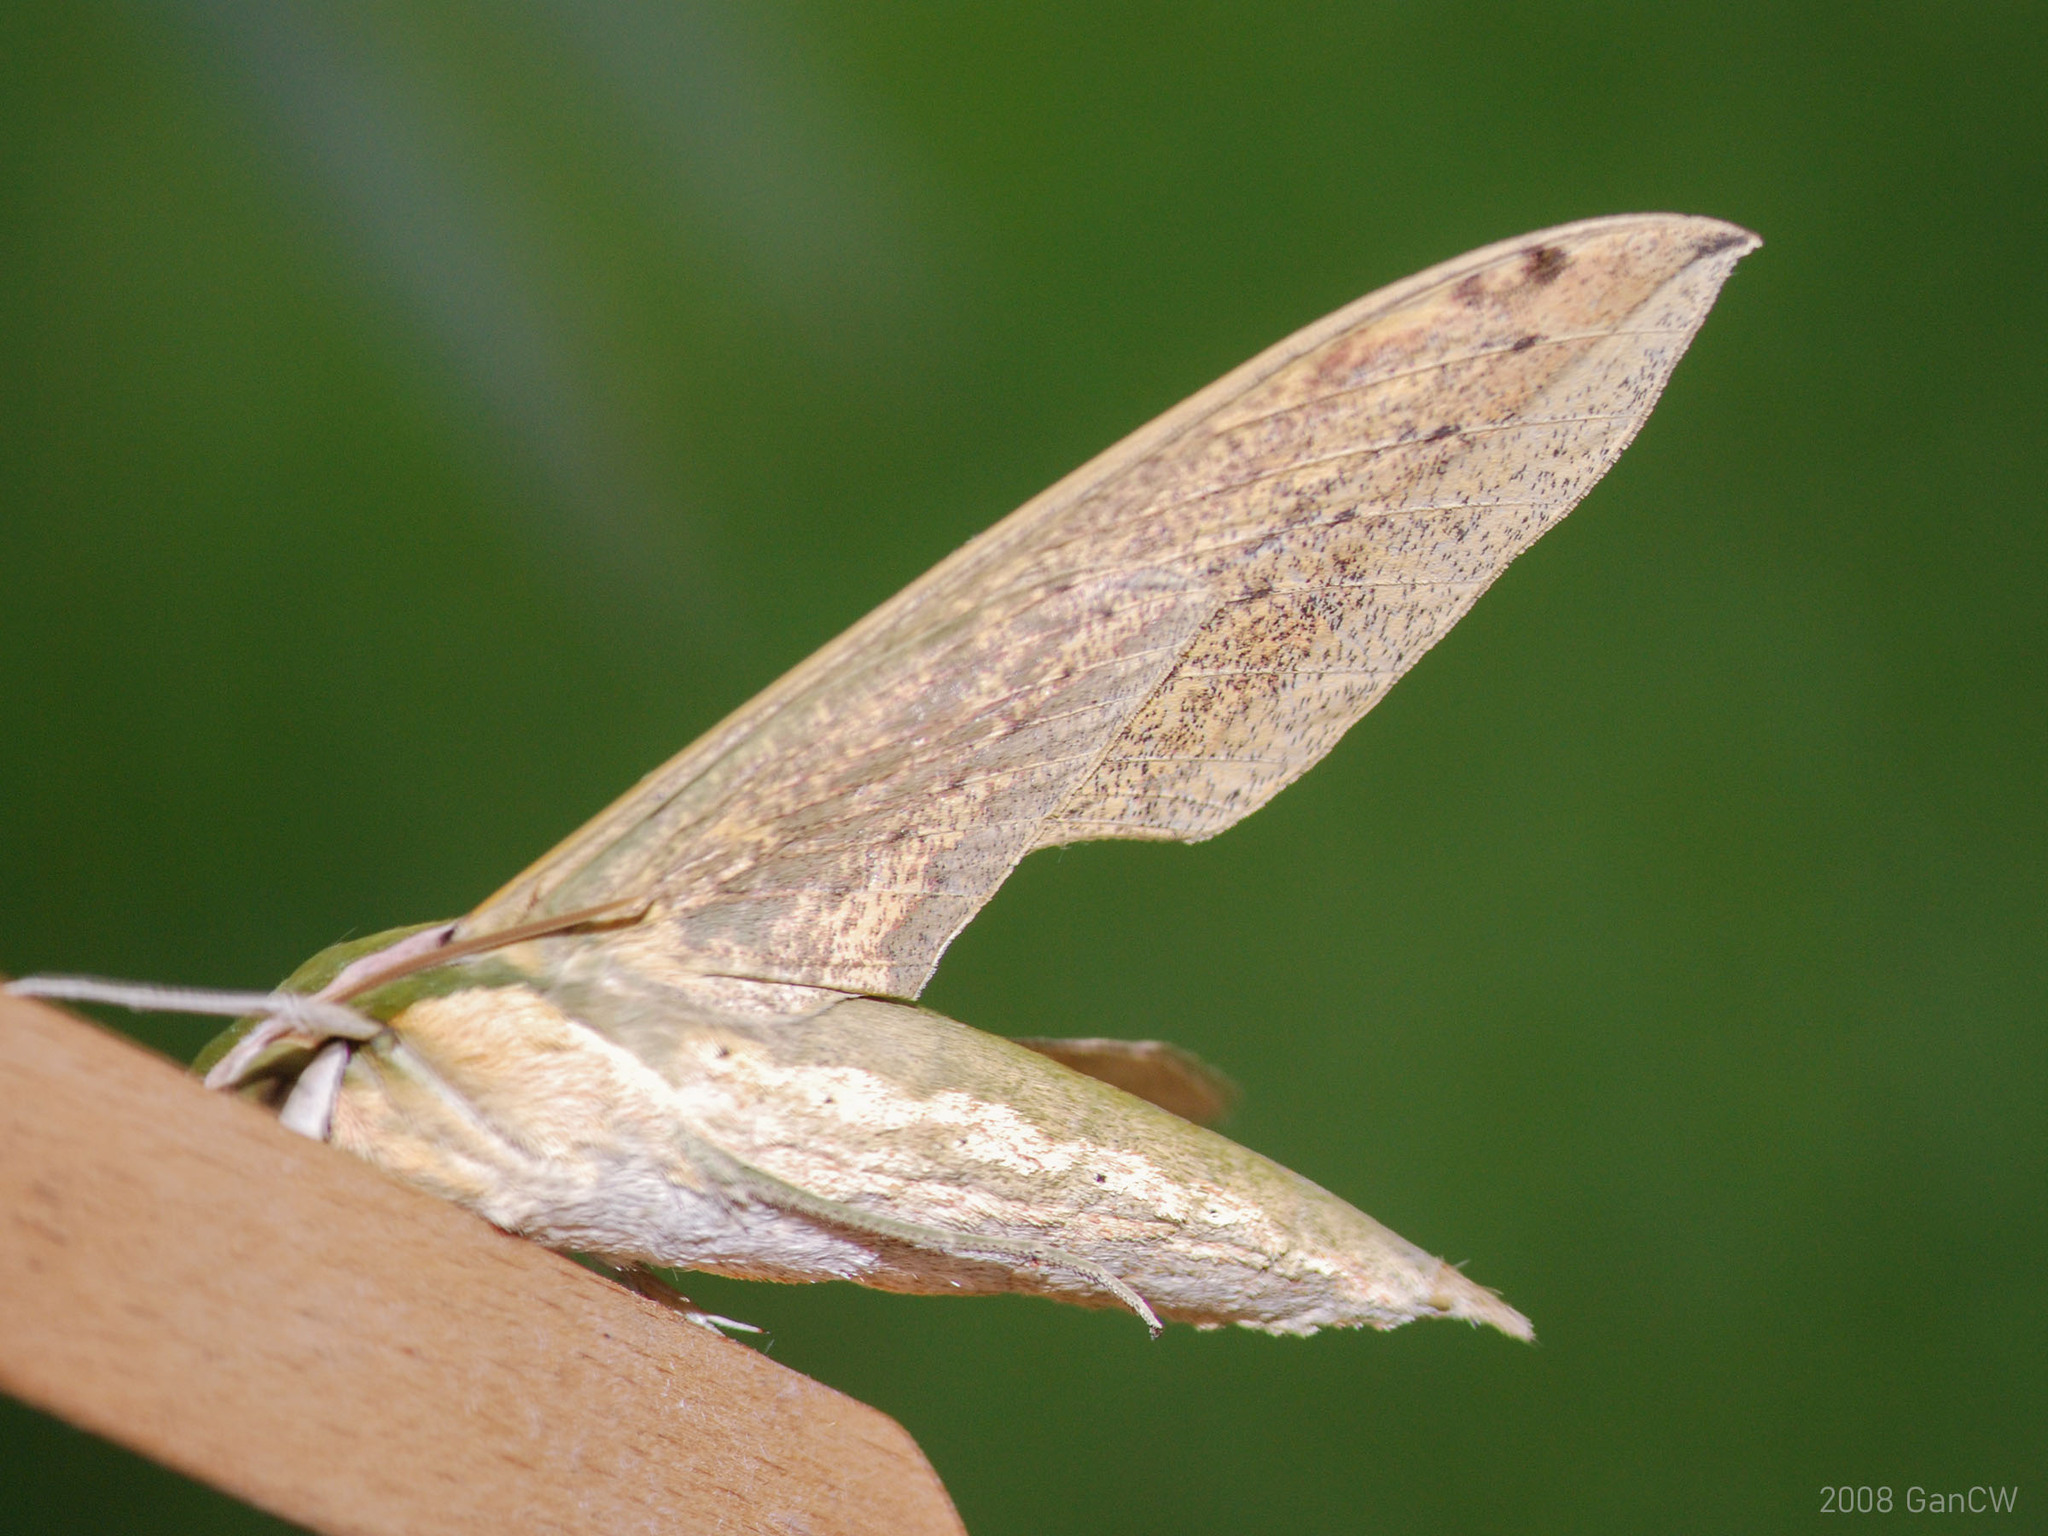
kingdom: Animalia
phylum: Arthropoda
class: Insecta
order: Lepidoptera
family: Sphingidae
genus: Cechetra
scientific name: Cechetra subangustata
